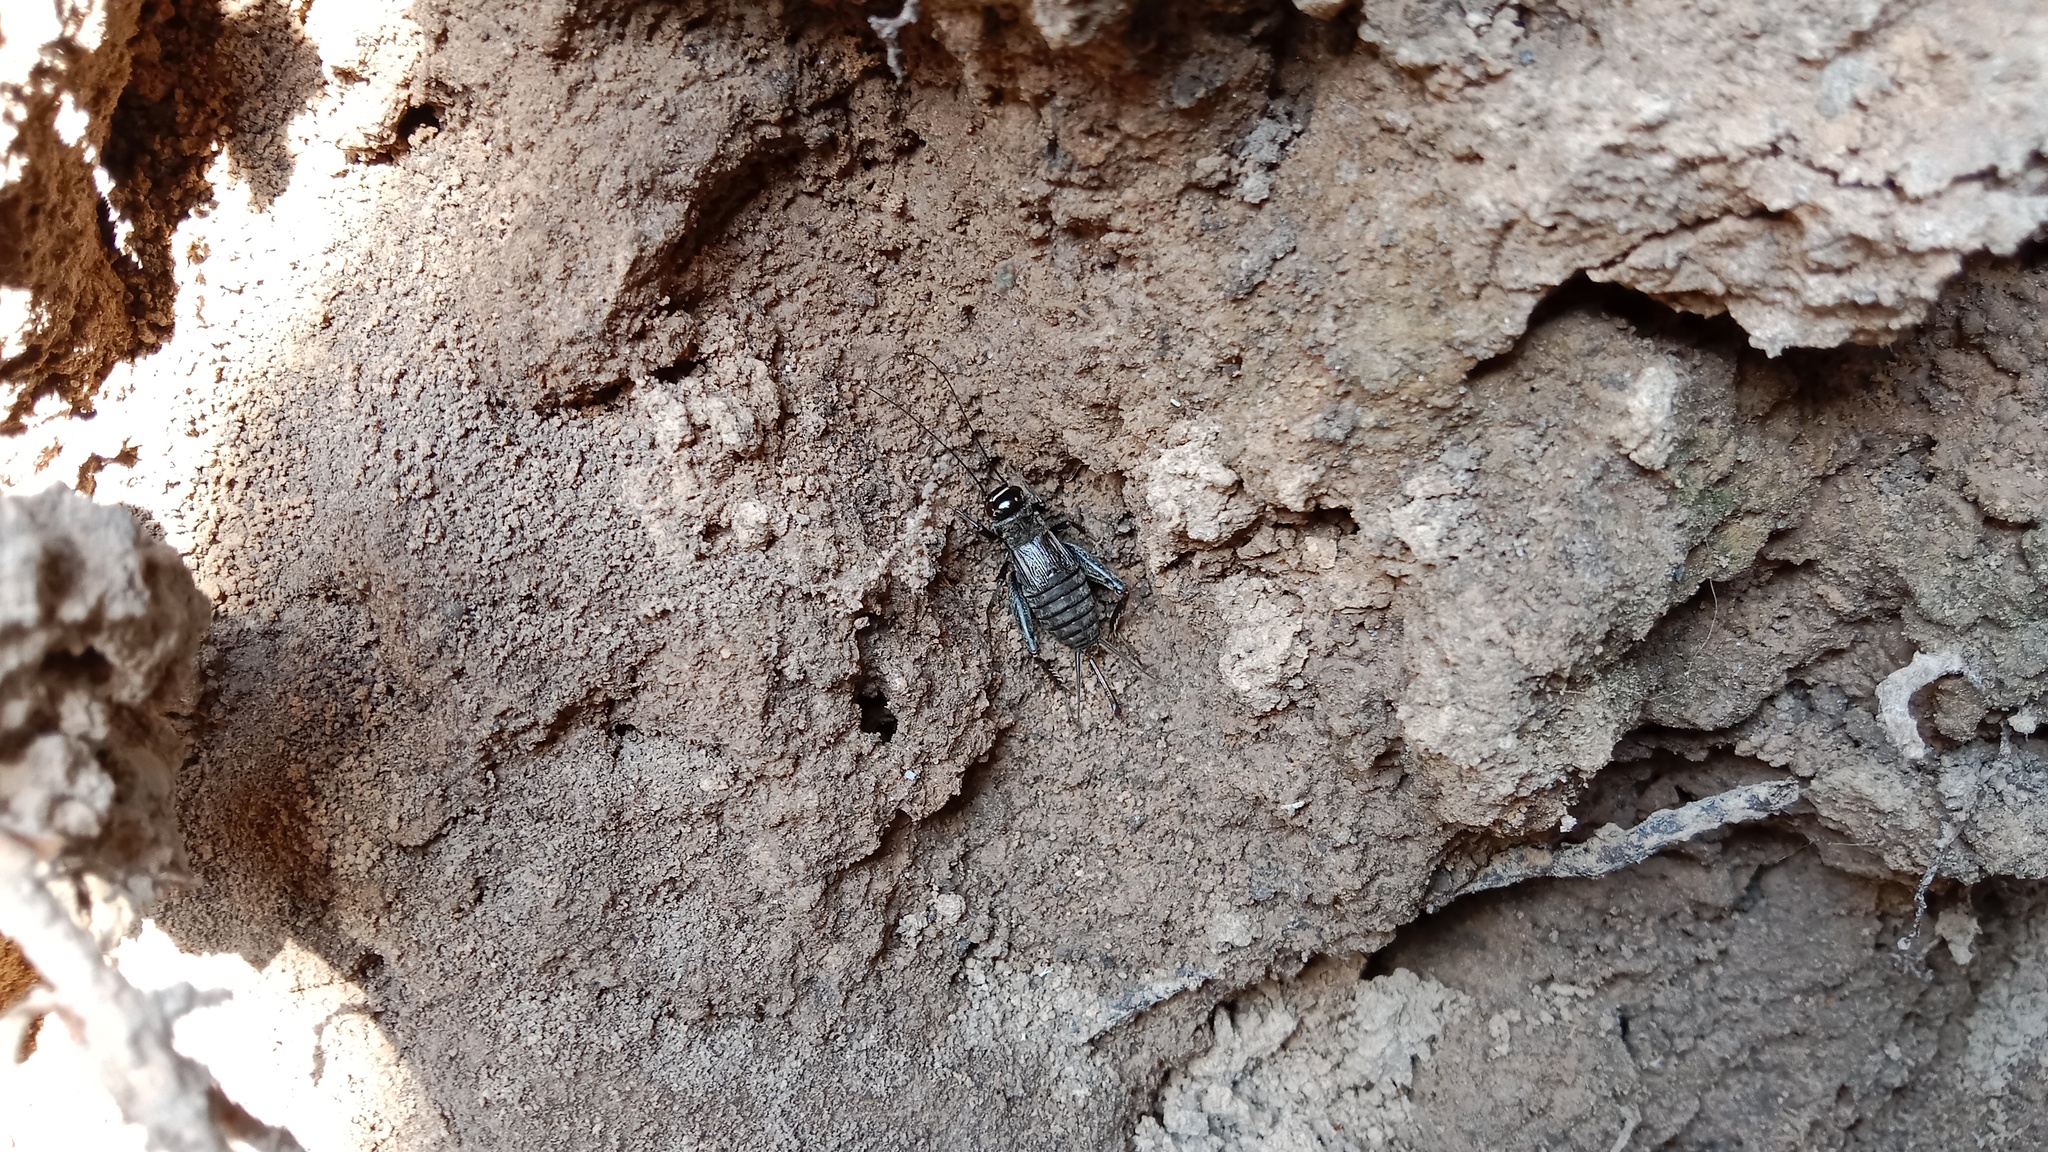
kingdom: Animalia
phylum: Arthropoda
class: Insecta
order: Orthoptera
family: Gryllidae
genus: Modicogryllus
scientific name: Modicogryllus frontalis
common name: Eastern cricket
